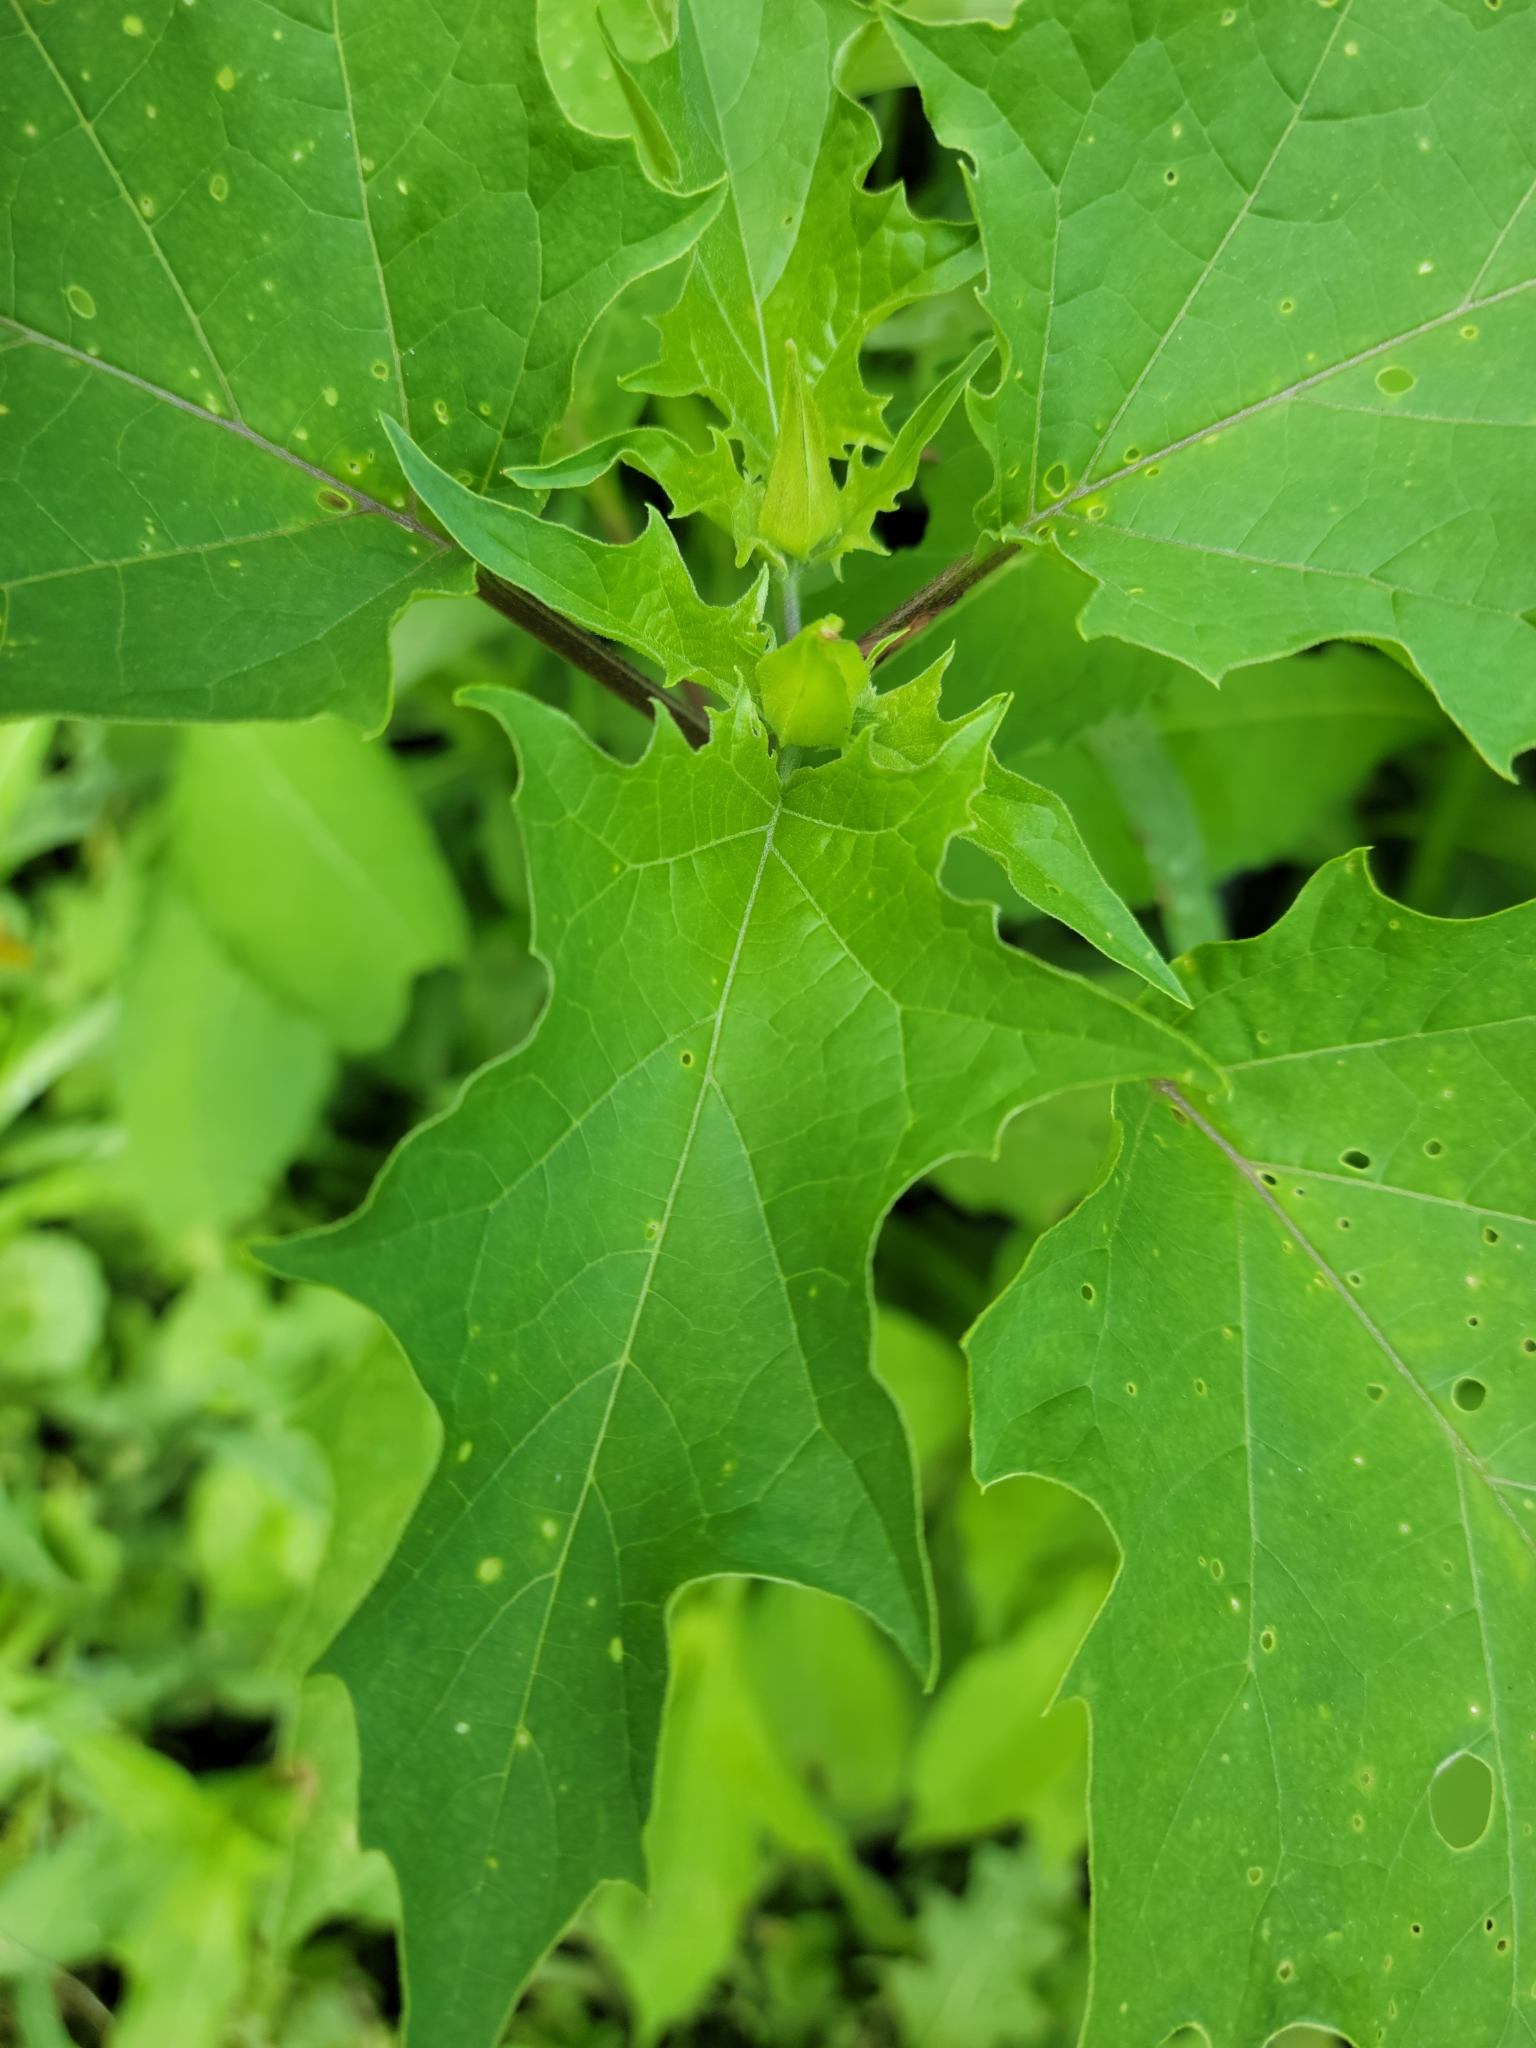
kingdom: Plantae
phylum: Tracheophyta
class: Magnoliopsida
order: Solanales
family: Solanaceae
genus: Datura
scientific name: Datura stramonium
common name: Thorn-apple
